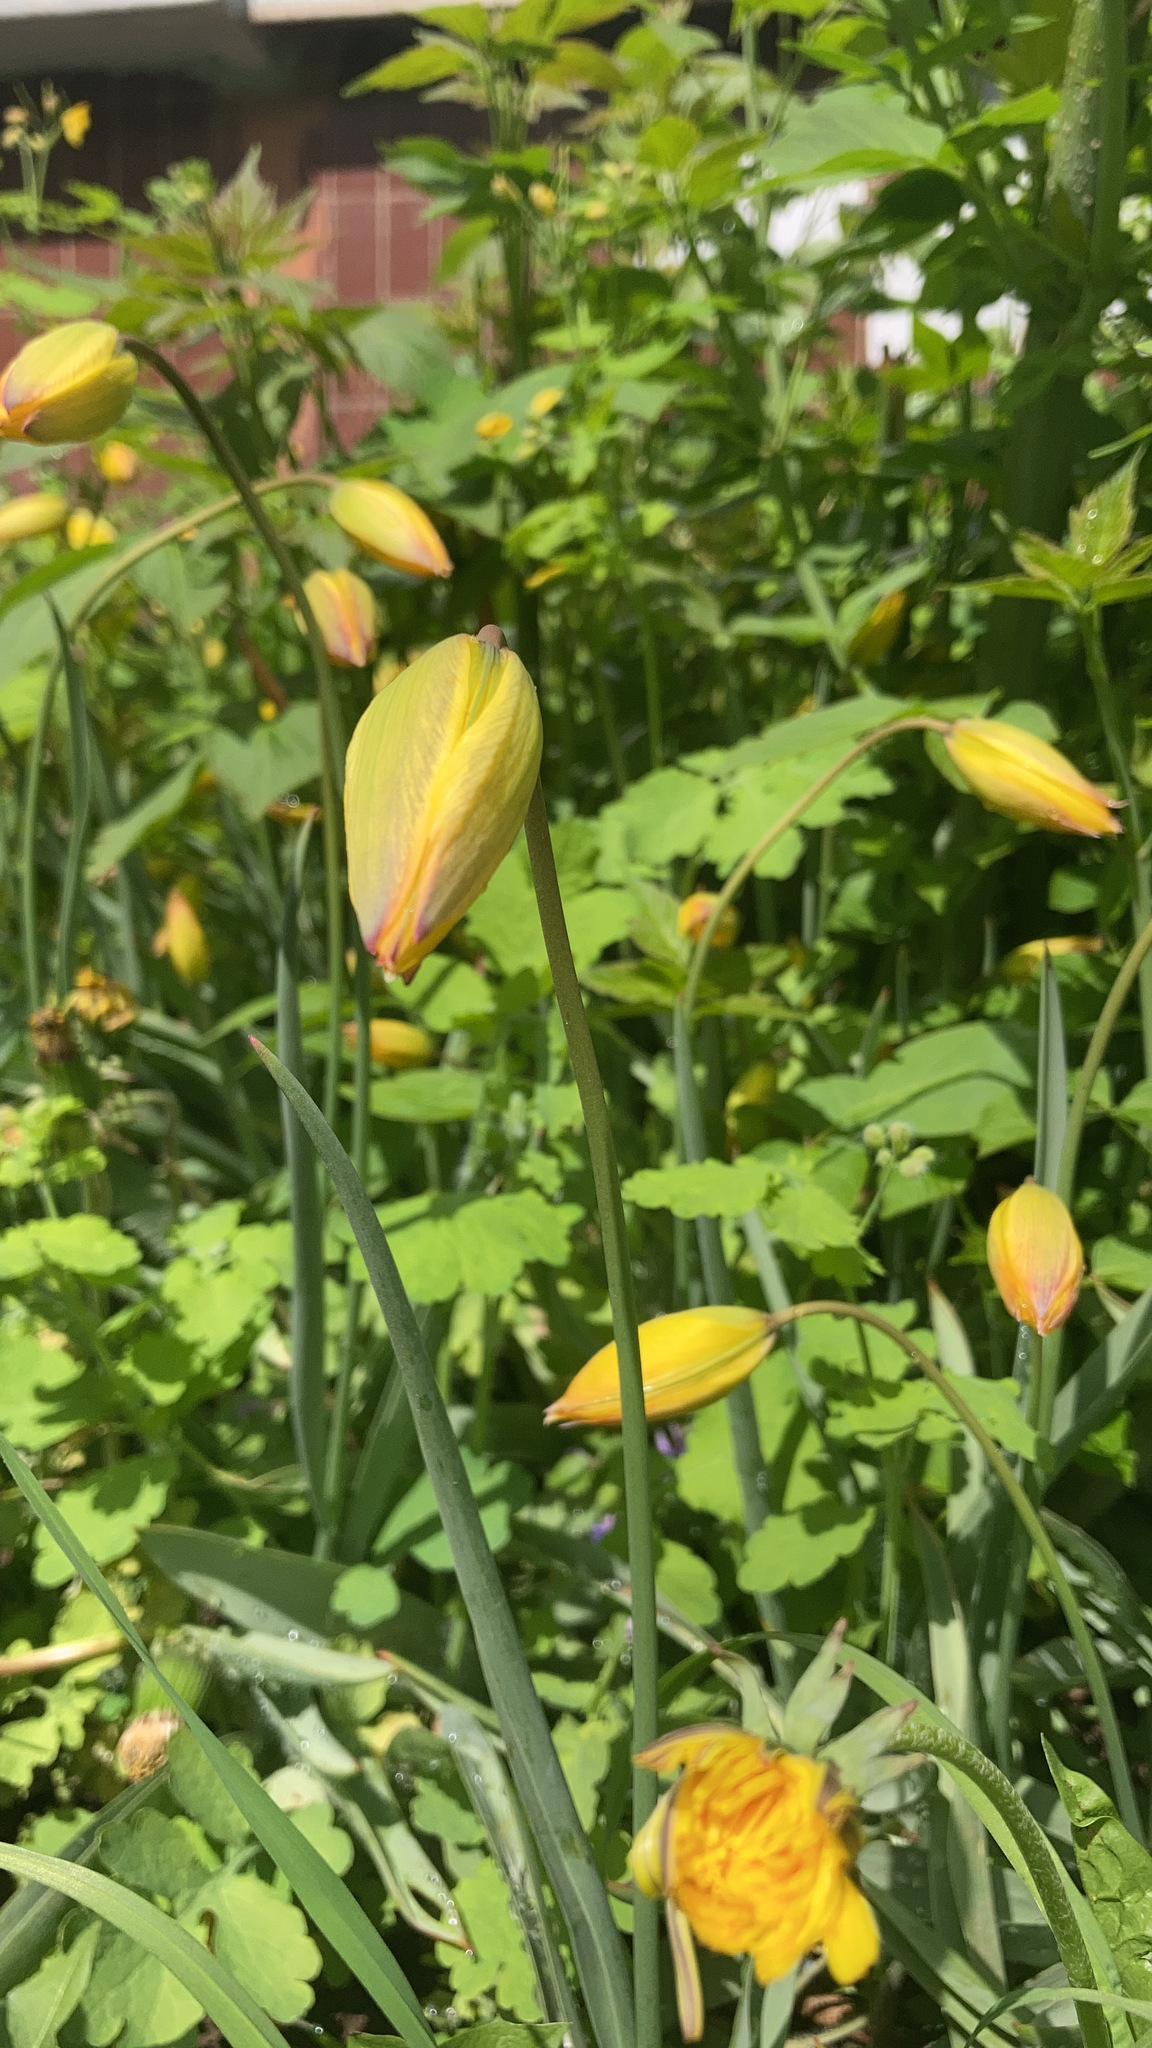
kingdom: Plantae
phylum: Tracheophyta
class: Liliopsida
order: Liliales
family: Liliaceae
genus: Tulipa
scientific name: Tulipa sylvestris
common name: Wild tulip
